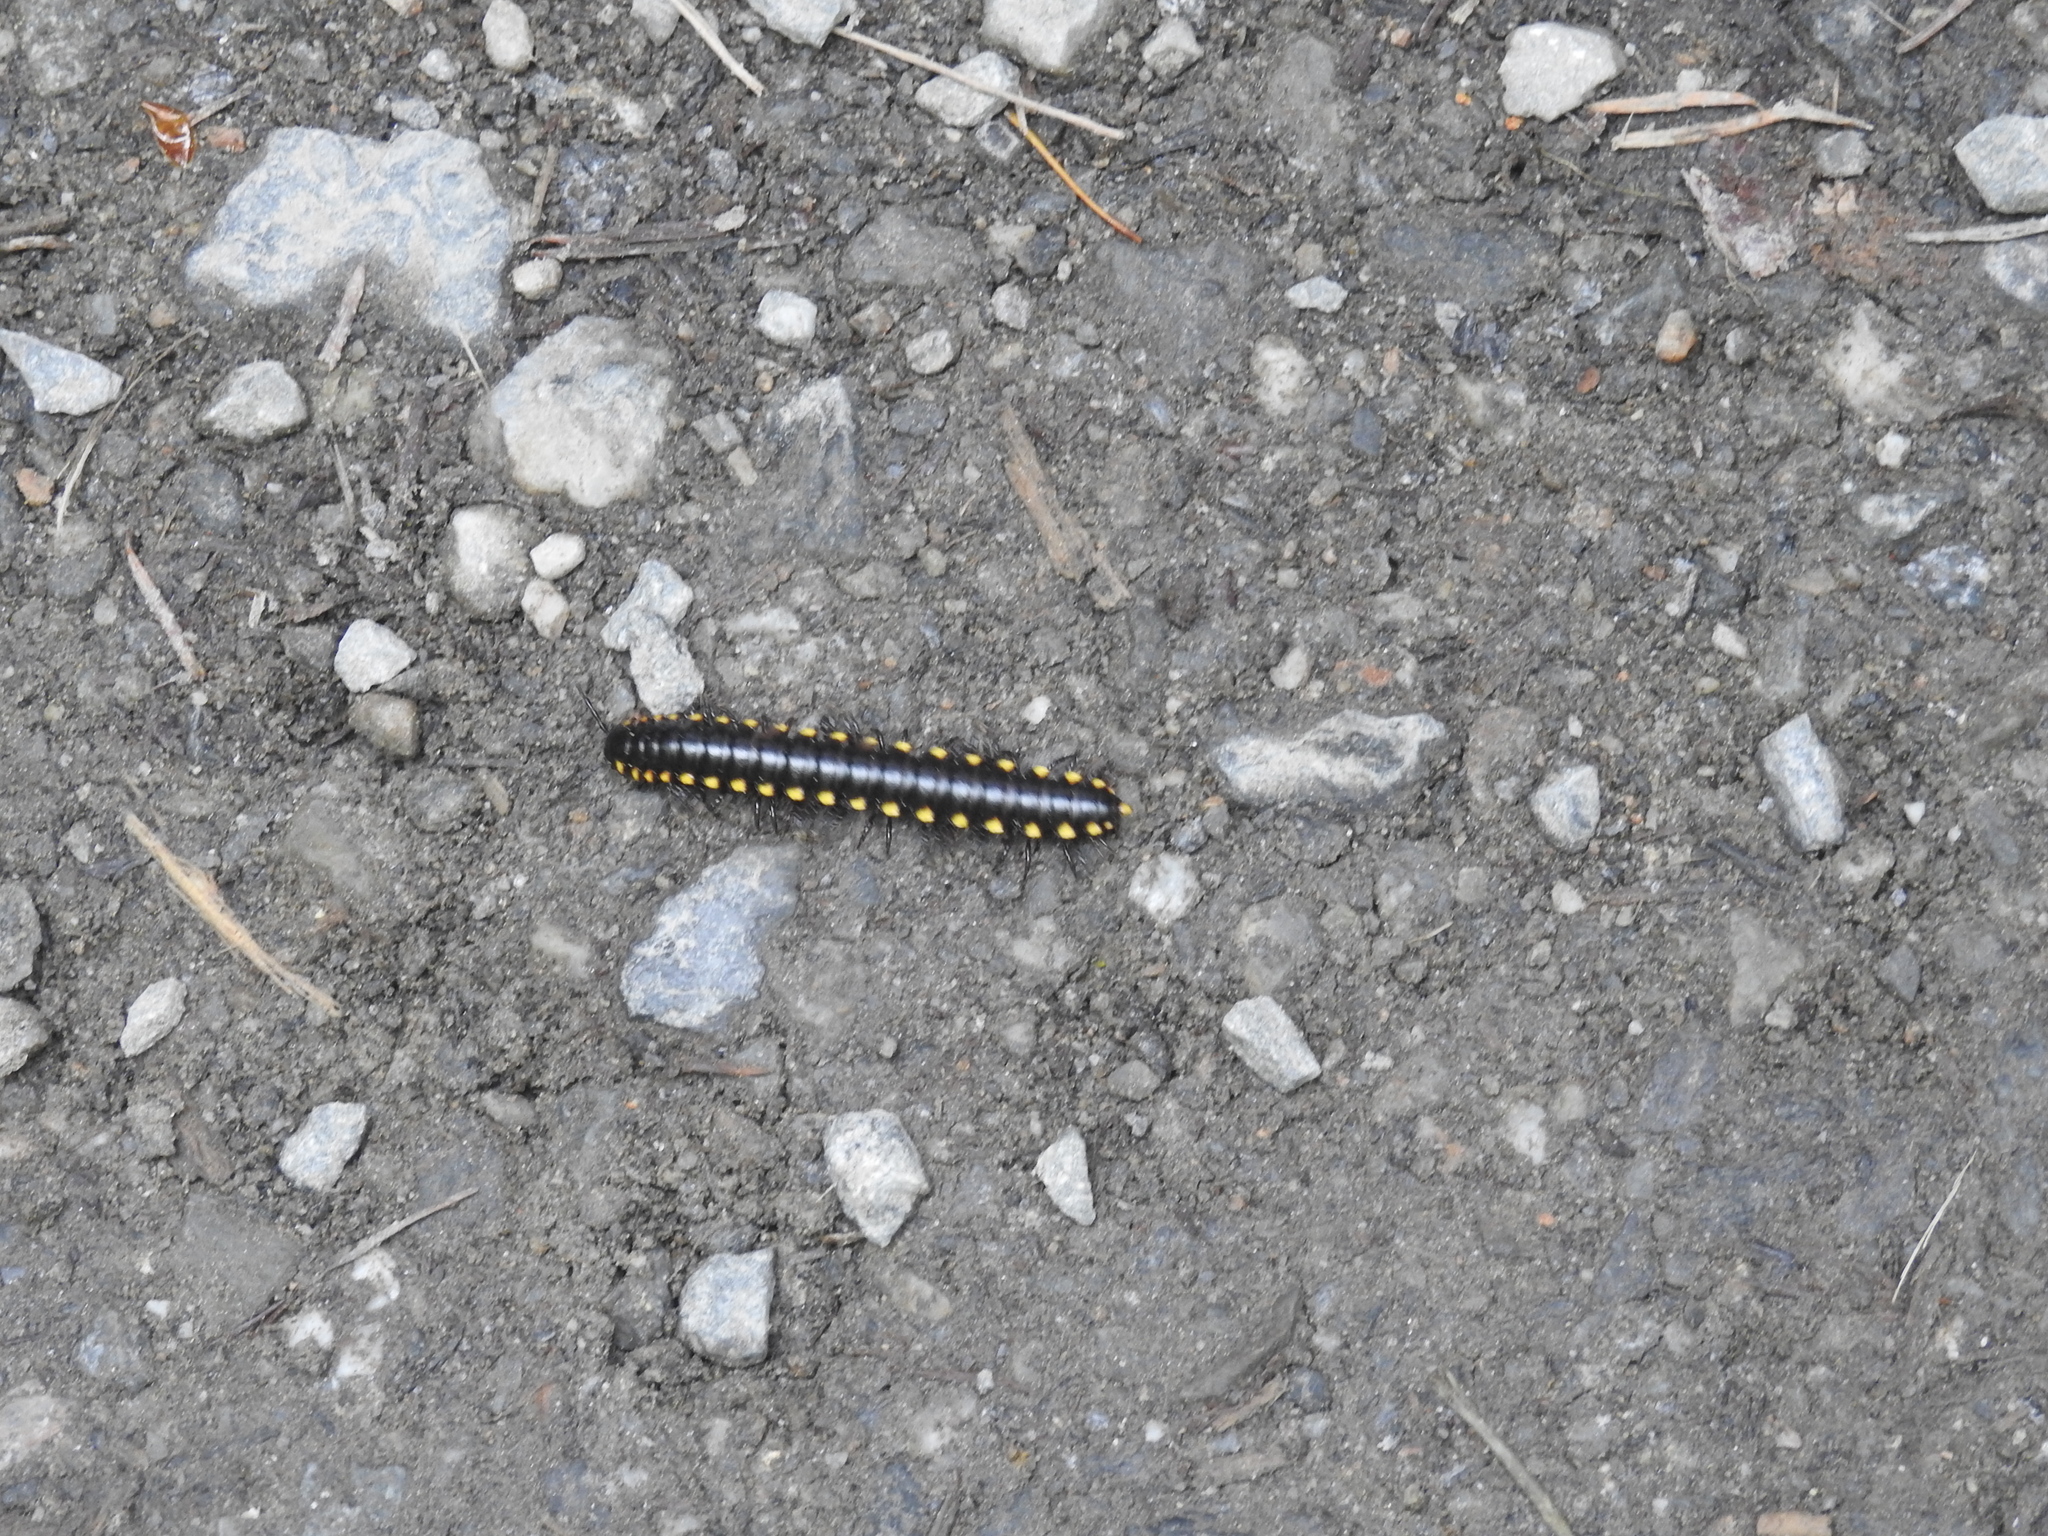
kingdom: Animalia
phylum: Arthropoda
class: Diplopoda
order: Polydesmida
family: Xystodesmidae
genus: Harpaphe
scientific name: Harpaphe haydeniana
